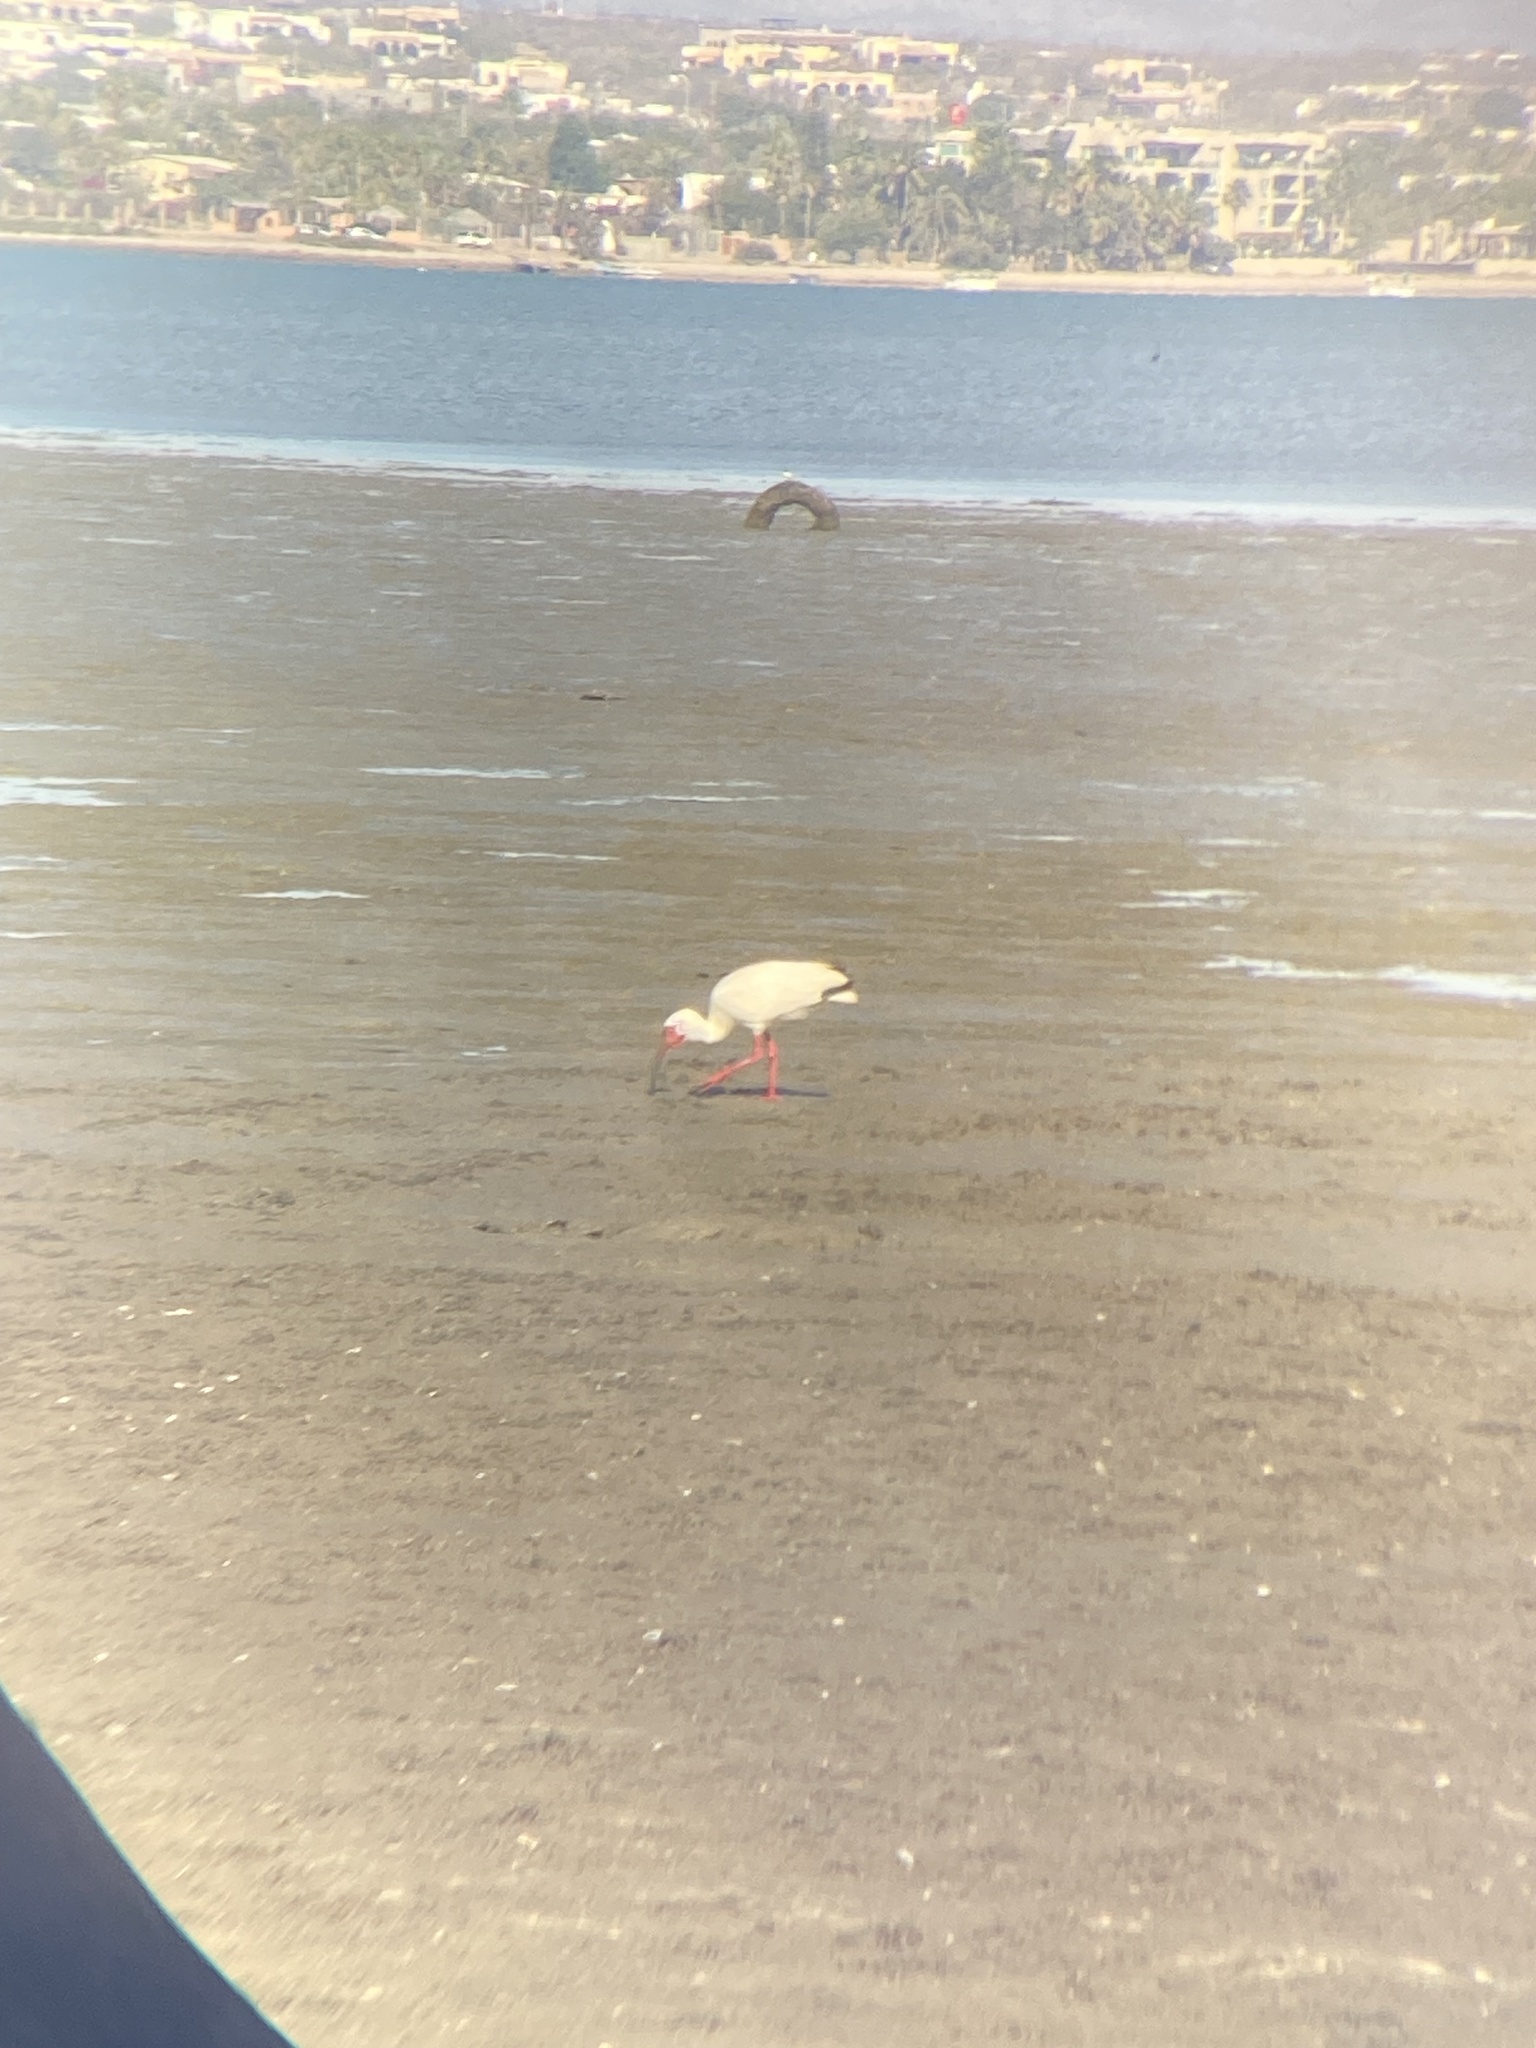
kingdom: Animalia
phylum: Chordata
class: Aves
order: Pelecaniformes
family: Threskiornithidae
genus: Eudocimus
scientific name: Eudocimus albus
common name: White ibis
